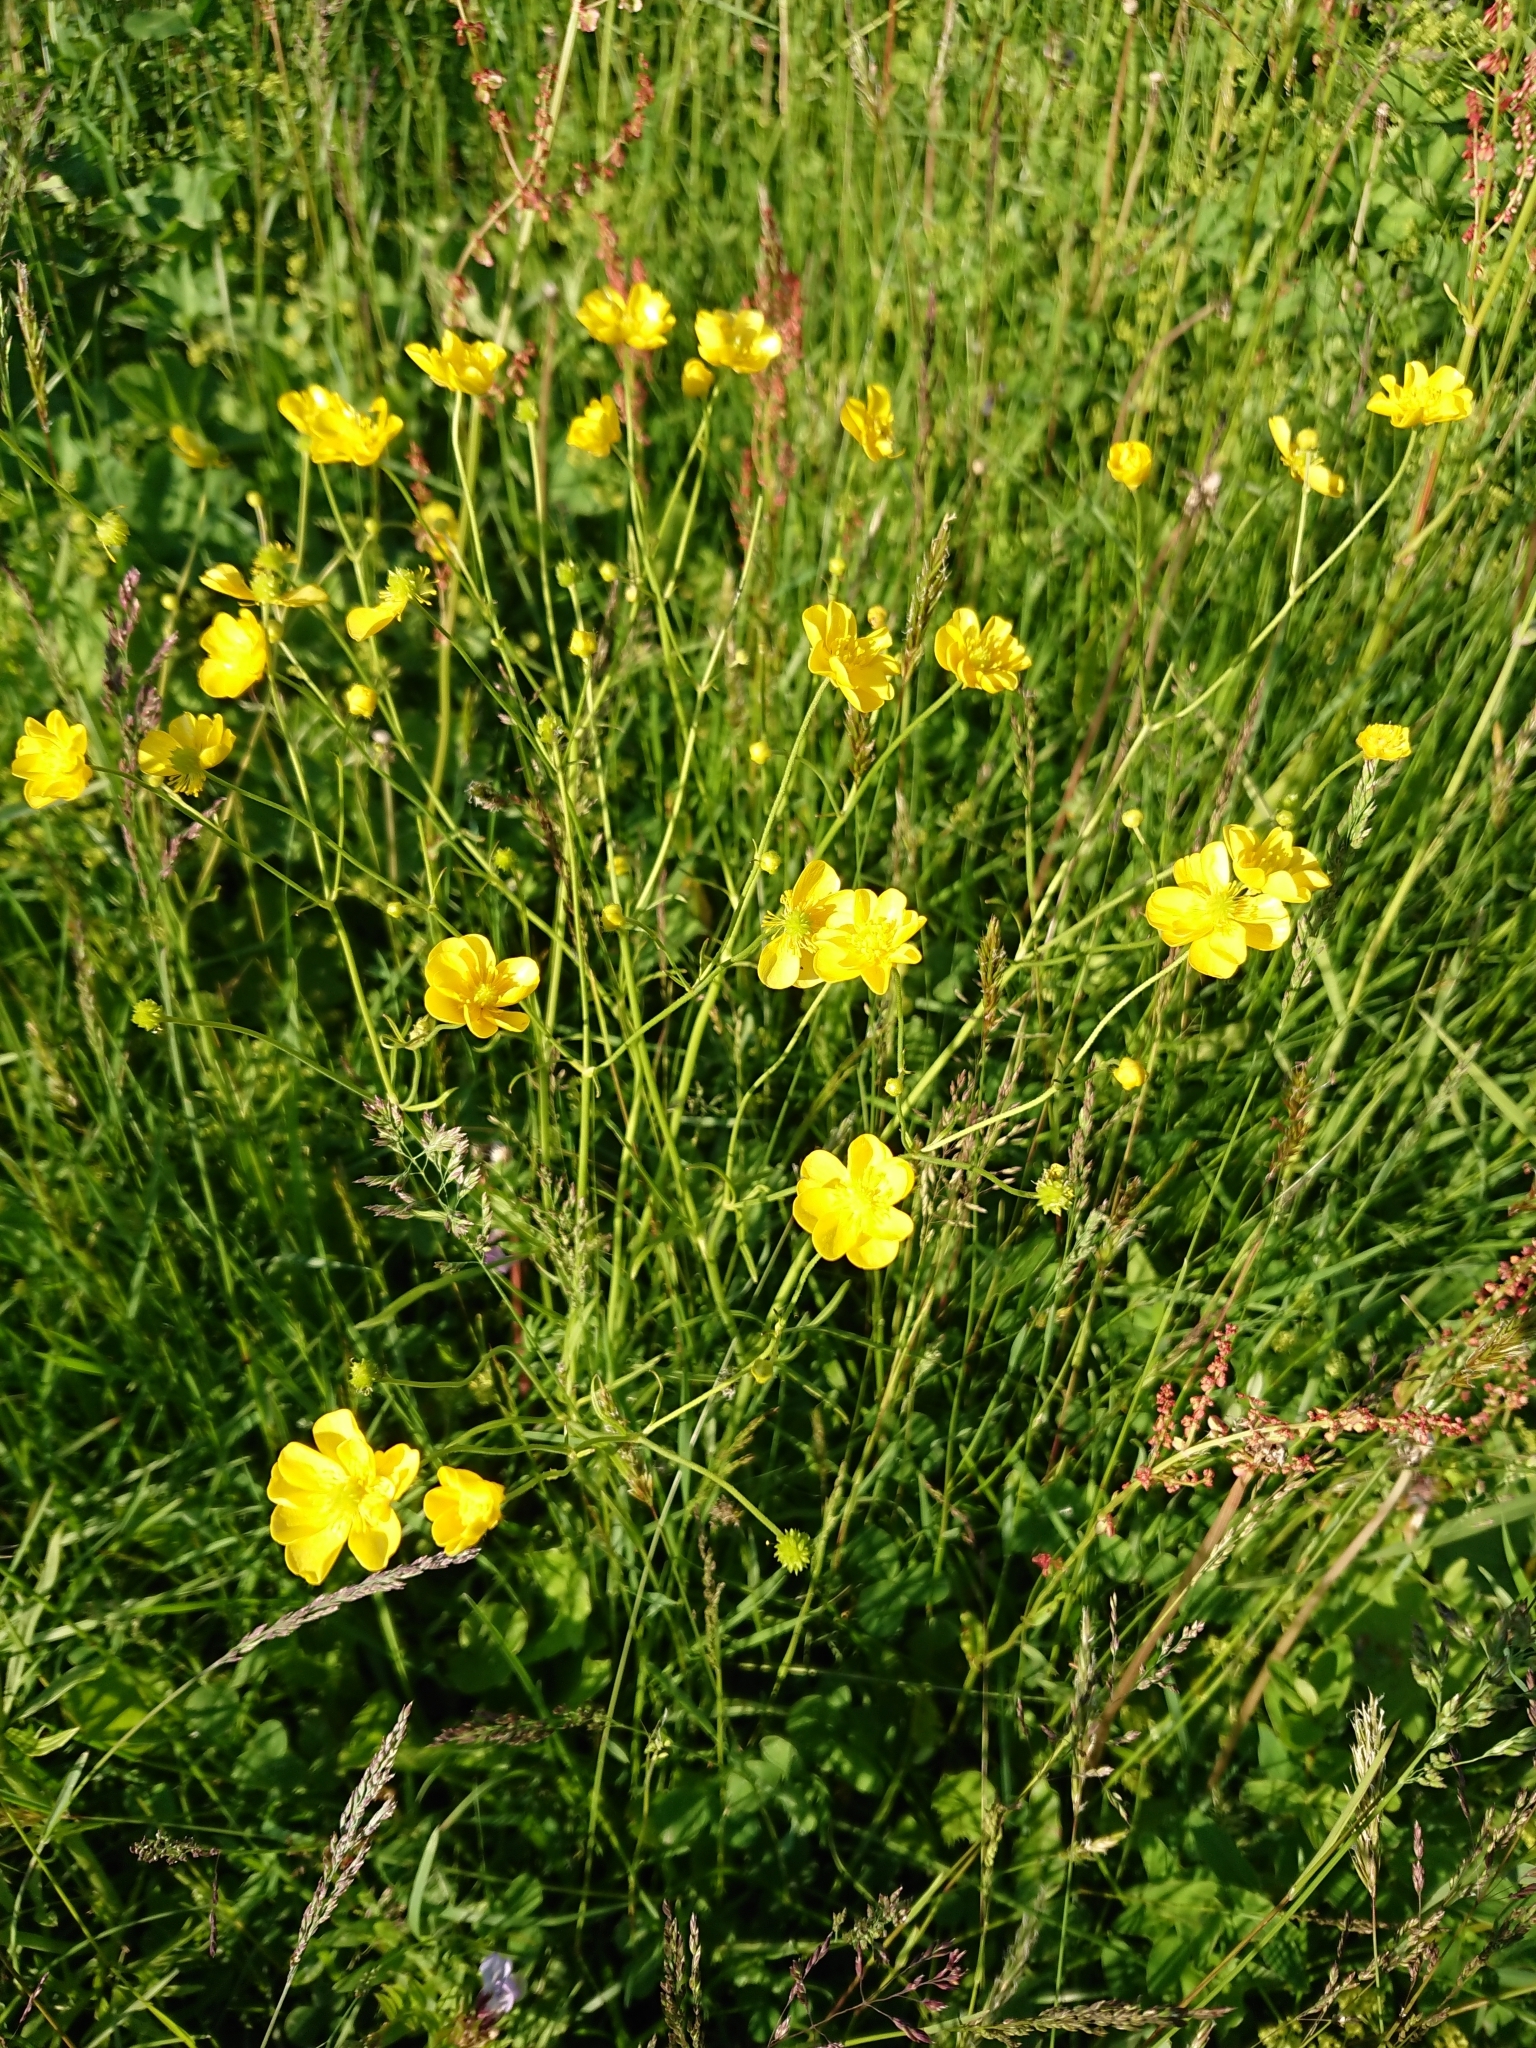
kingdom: Plantae
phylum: Tracheophyta
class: Magnoliopsida
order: Ranunculales
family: Ranunculaceae
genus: Ranunculus
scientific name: Ranunculus acris
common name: Meadow buttercup
